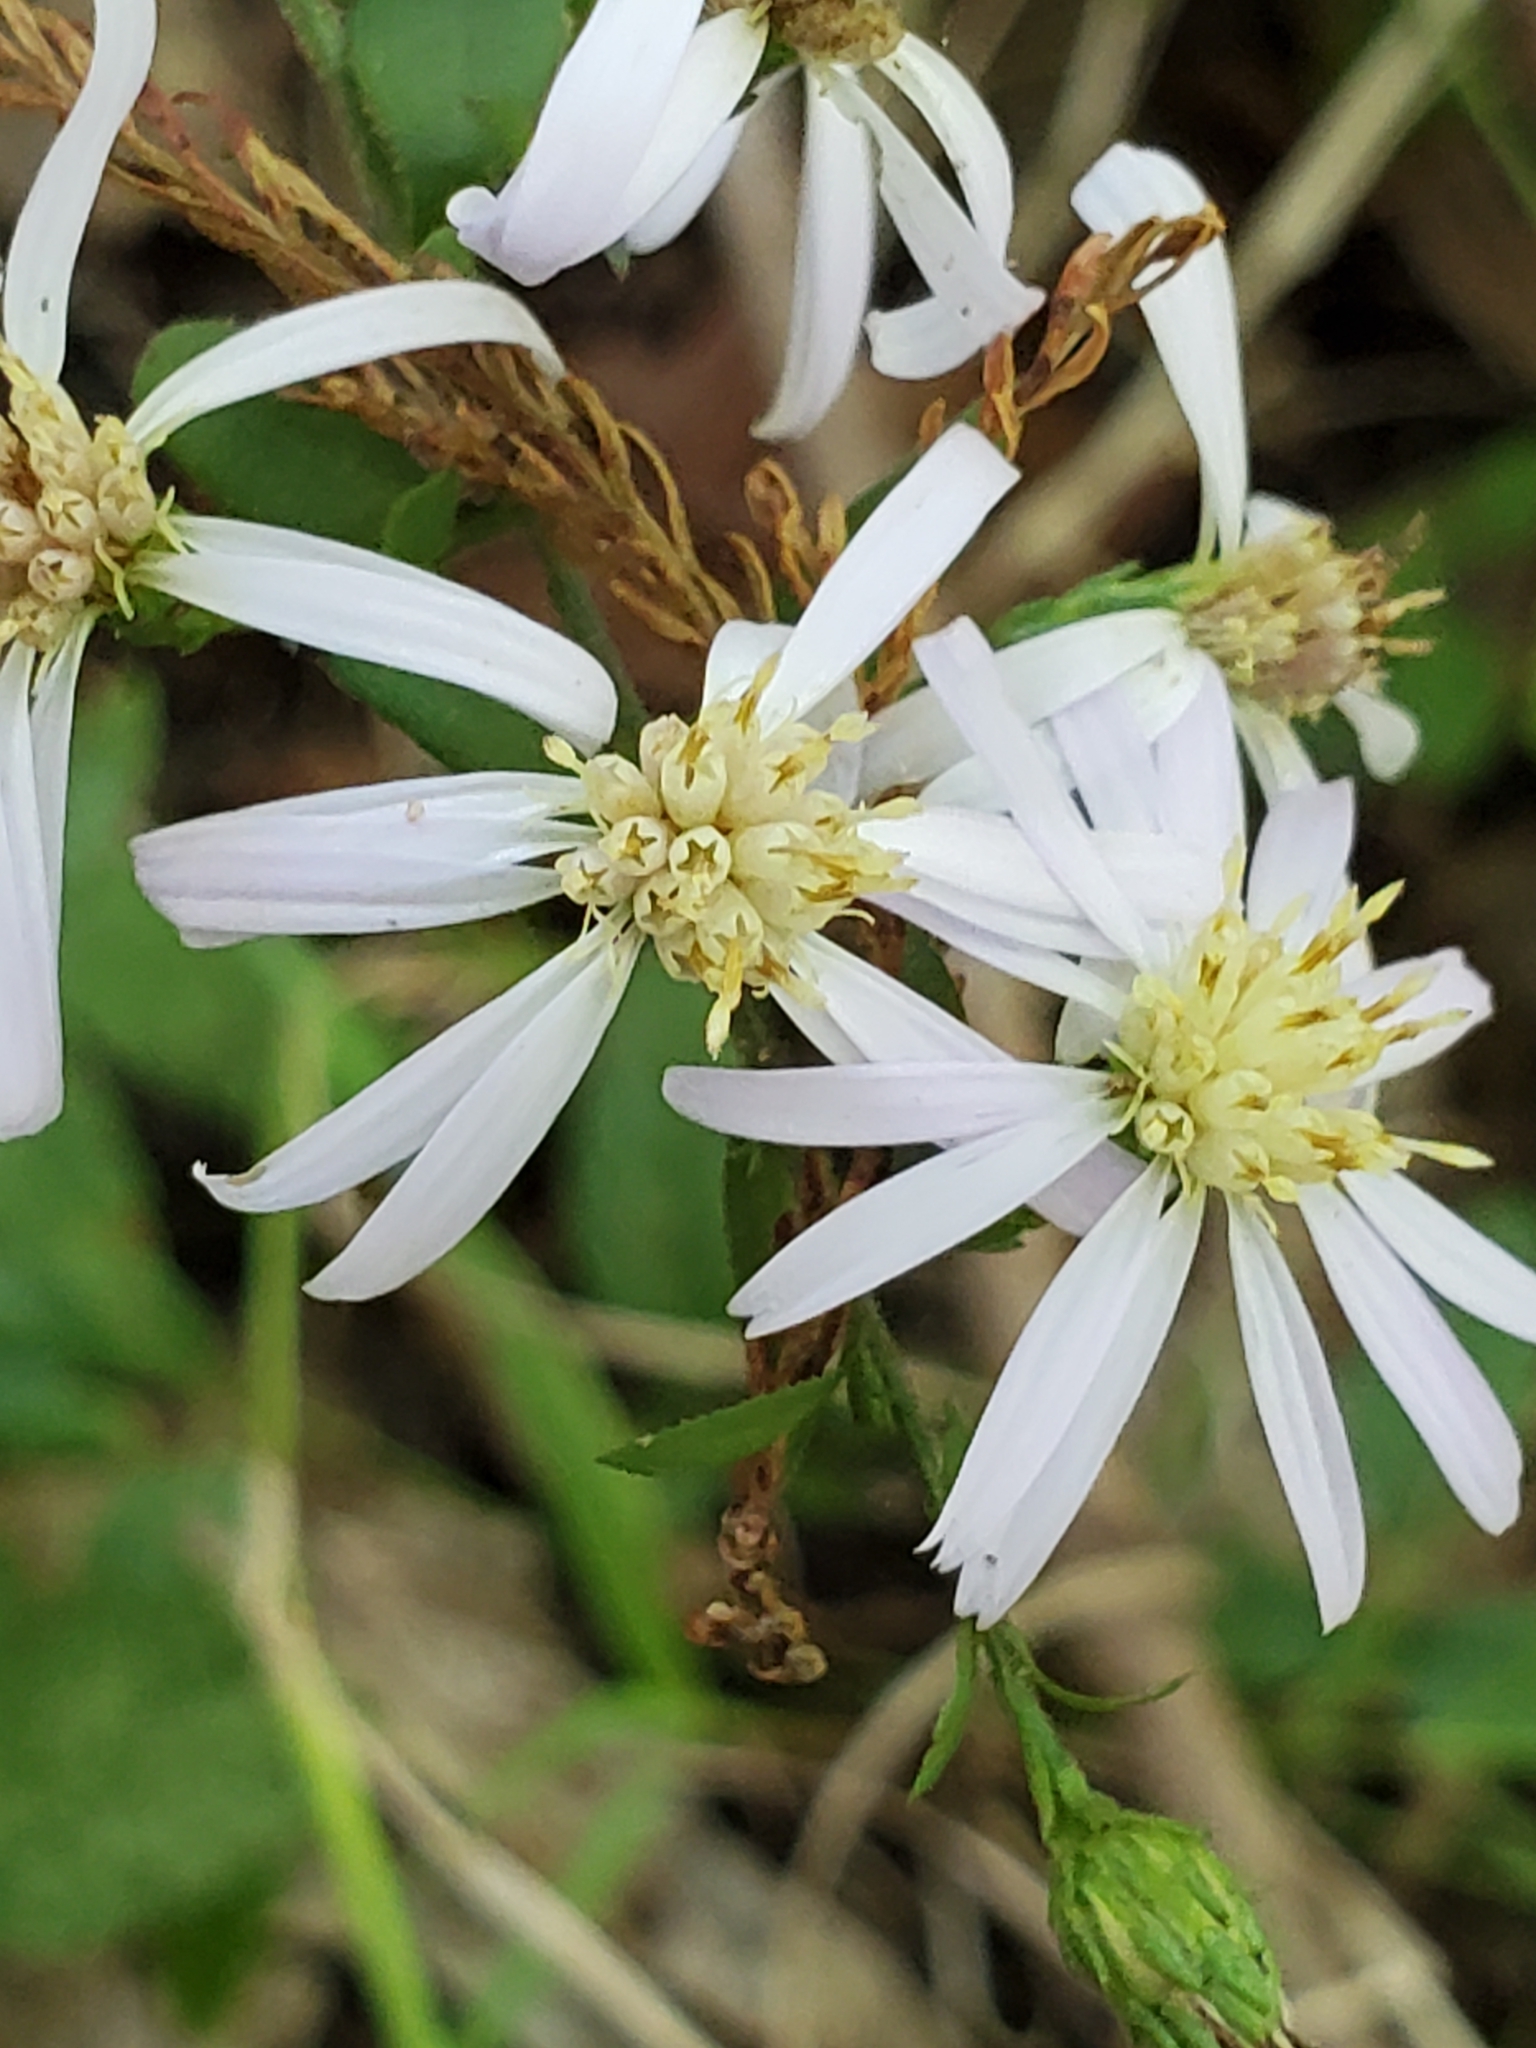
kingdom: Plantae
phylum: Tracheophyta
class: Magnoliopsida
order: Asterales
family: Asteraceae
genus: Symphyotrichum
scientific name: Symphyotrichum drummondii
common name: Drummond's aster
